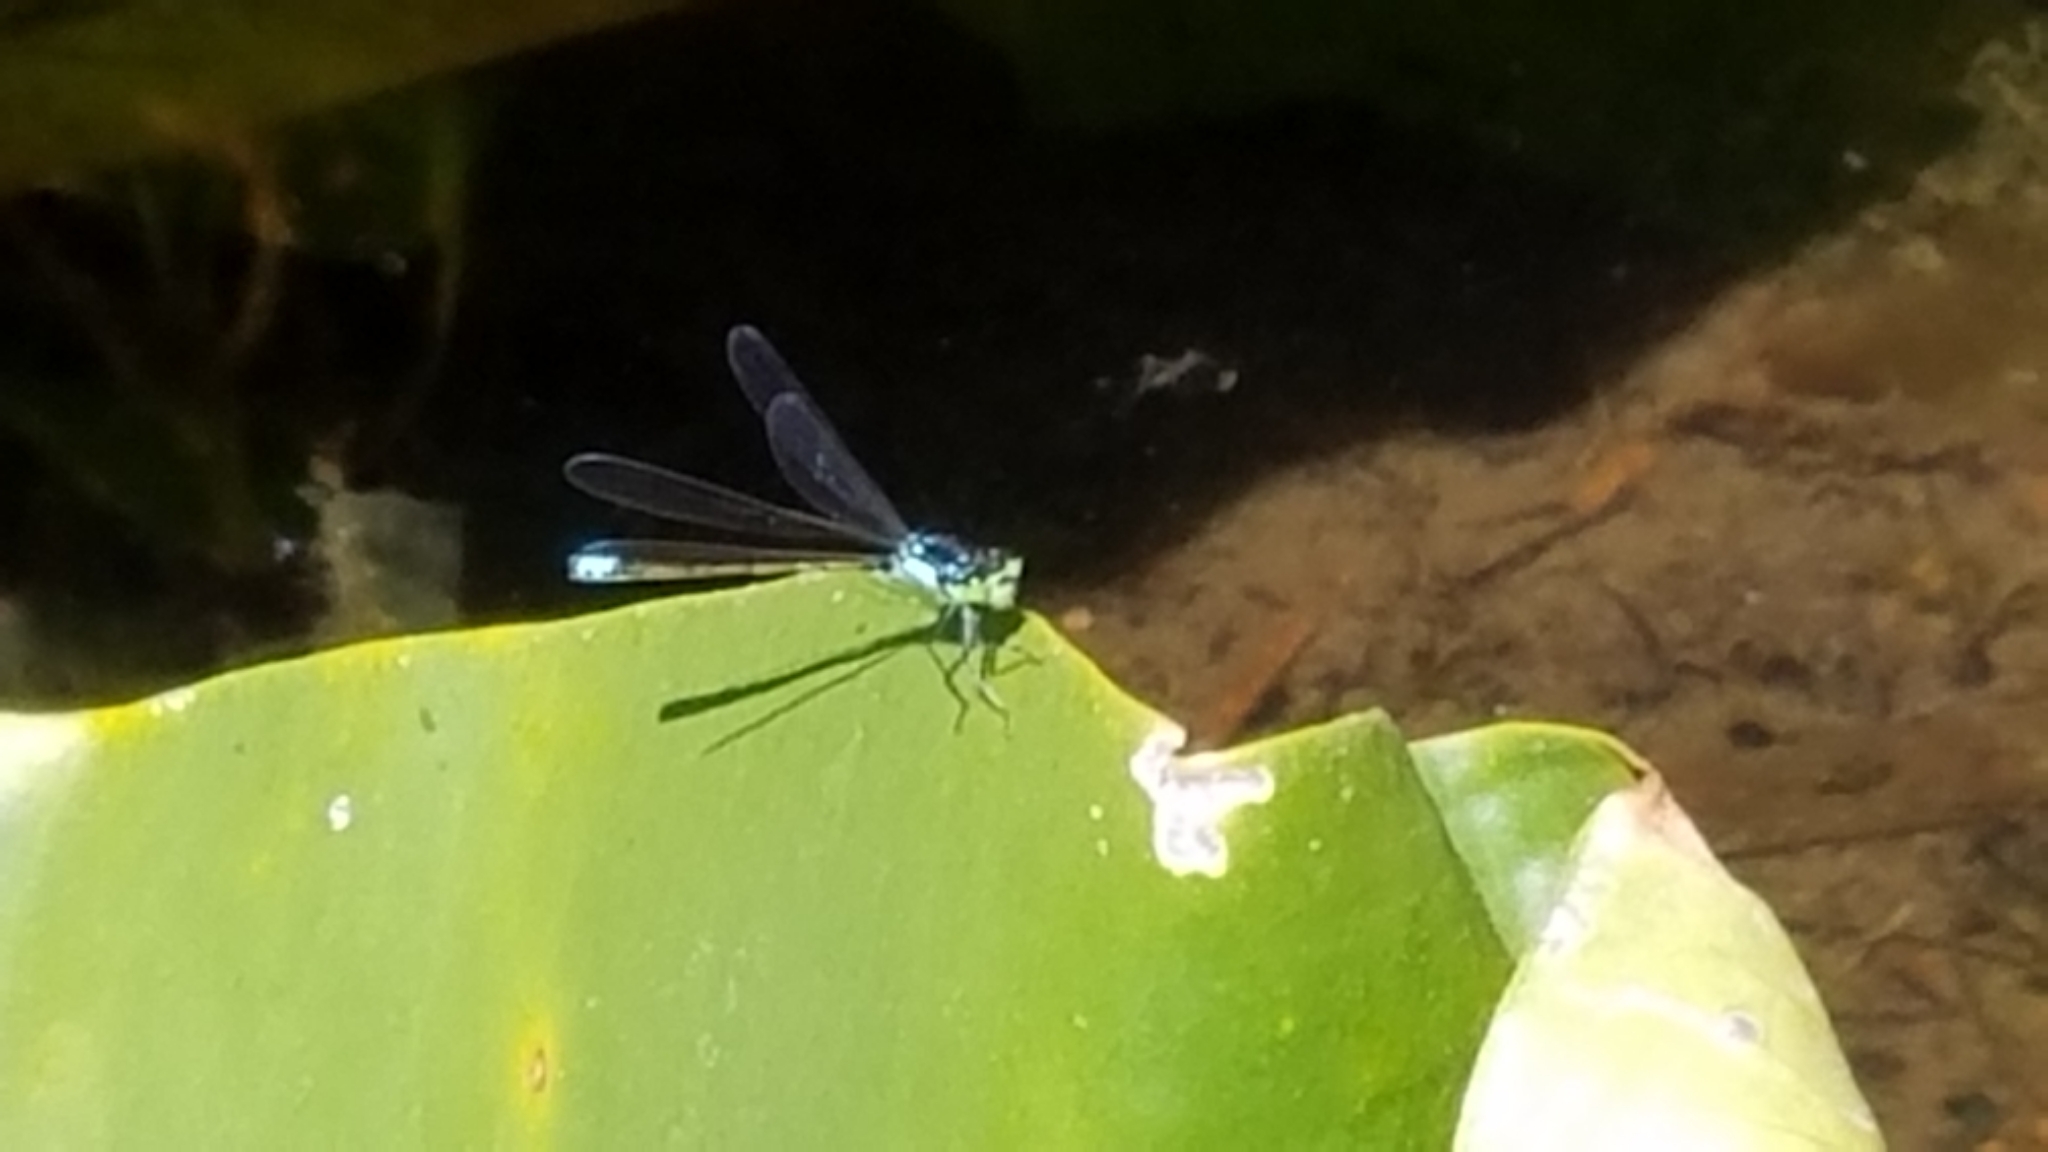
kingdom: Animalia
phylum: Arthropoda
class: Insecta
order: Odonata
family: Coenagrionidae
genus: Ischnura
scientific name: Ischnura cervula
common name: Pacific forktail
